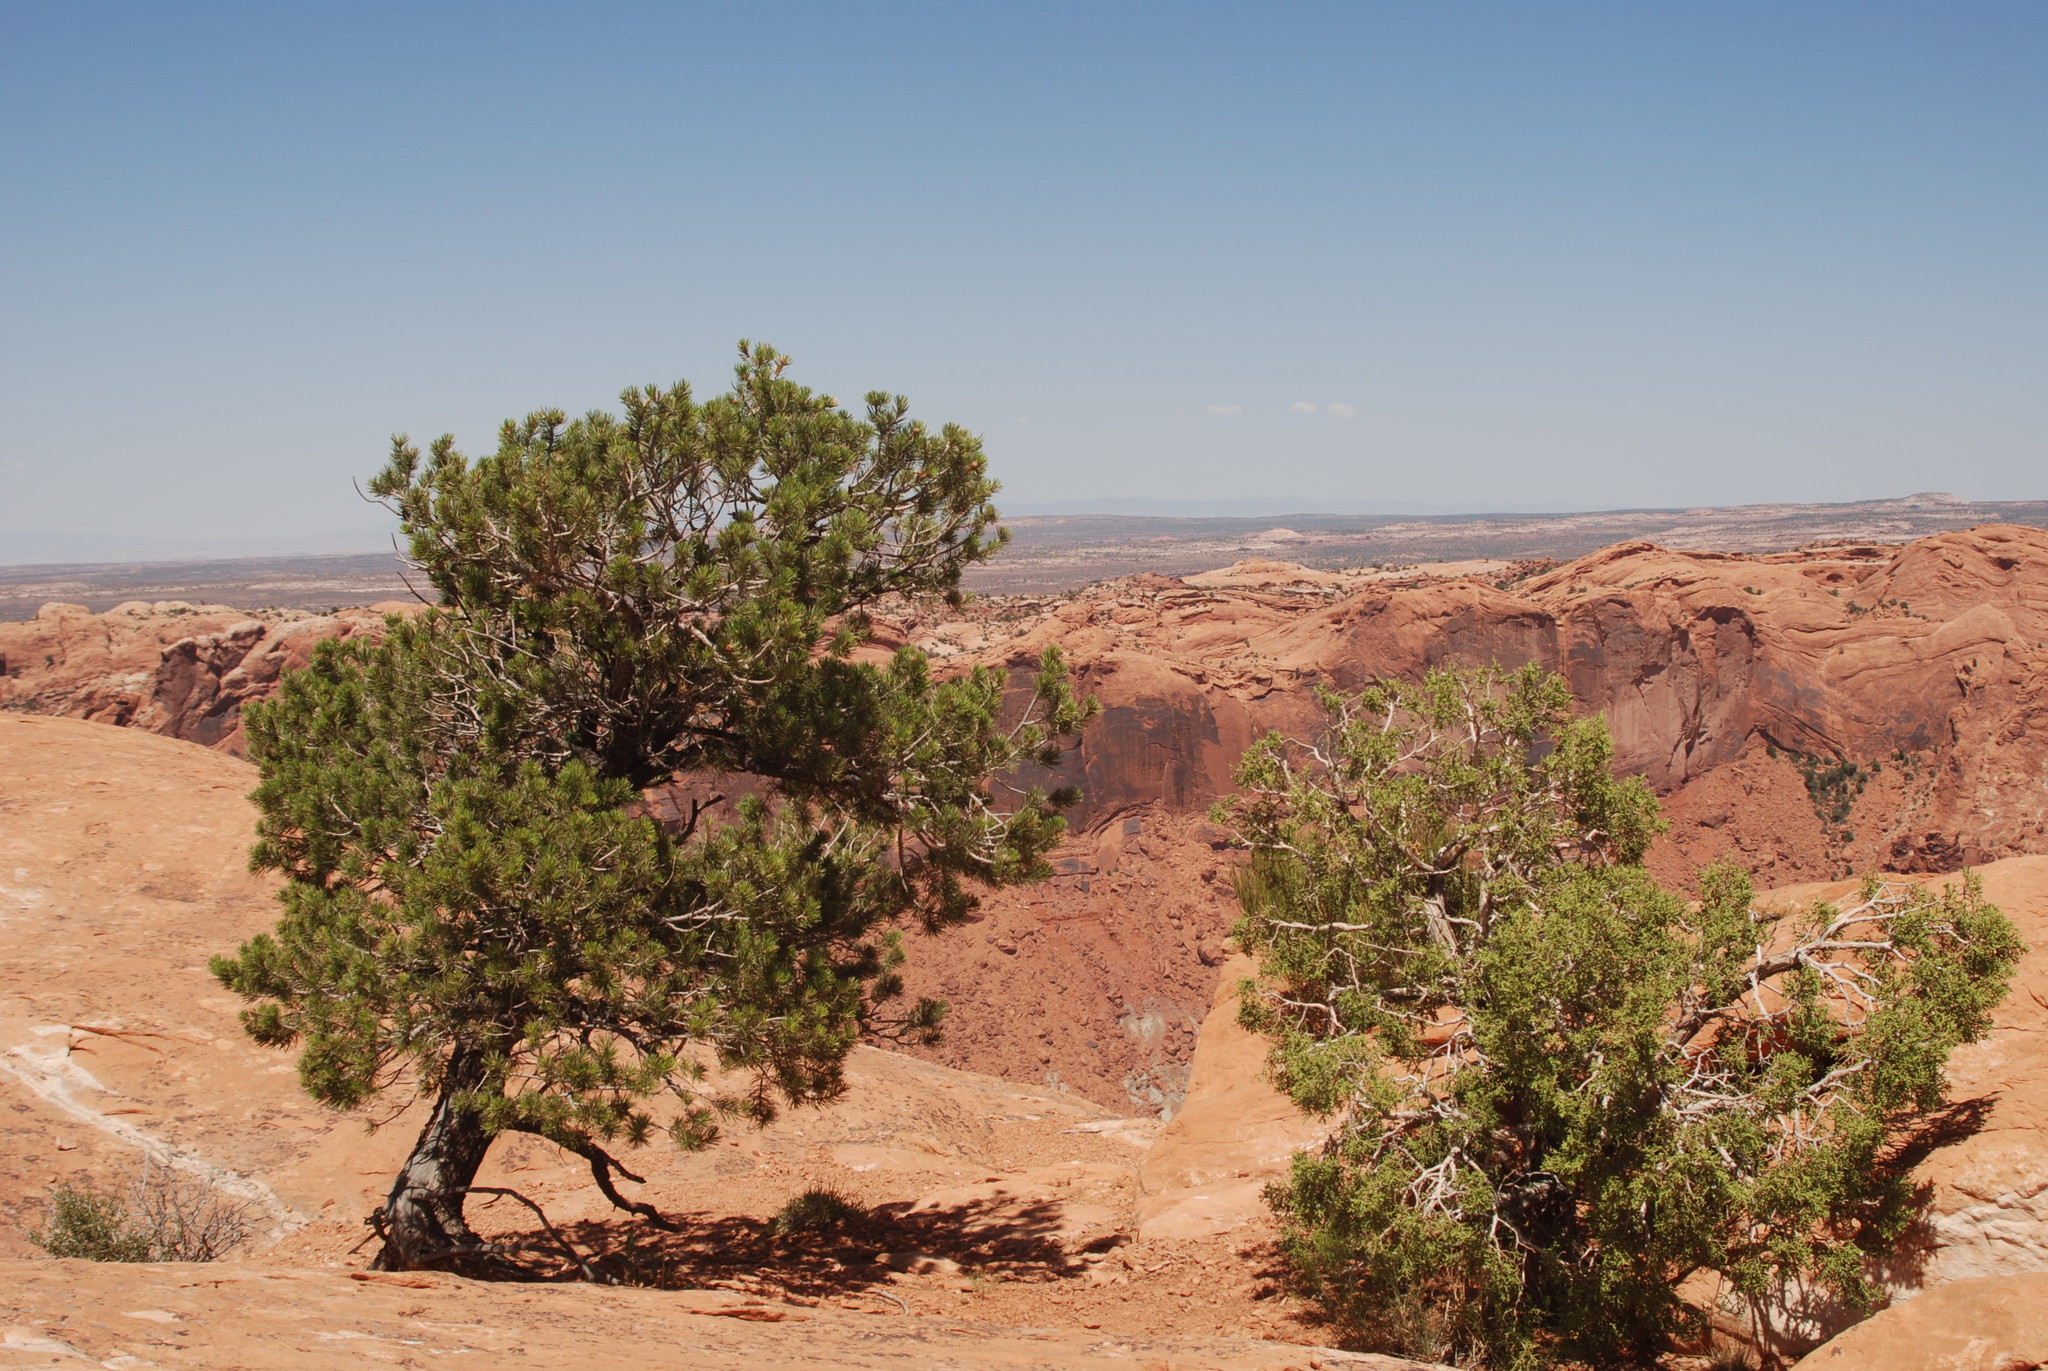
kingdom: Plantae
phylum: Tracheophyta
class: Pinopsida
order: Pinales
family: Pinaceae
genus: Pinus
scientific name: Pinus edulis
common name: Colorado pinyon
